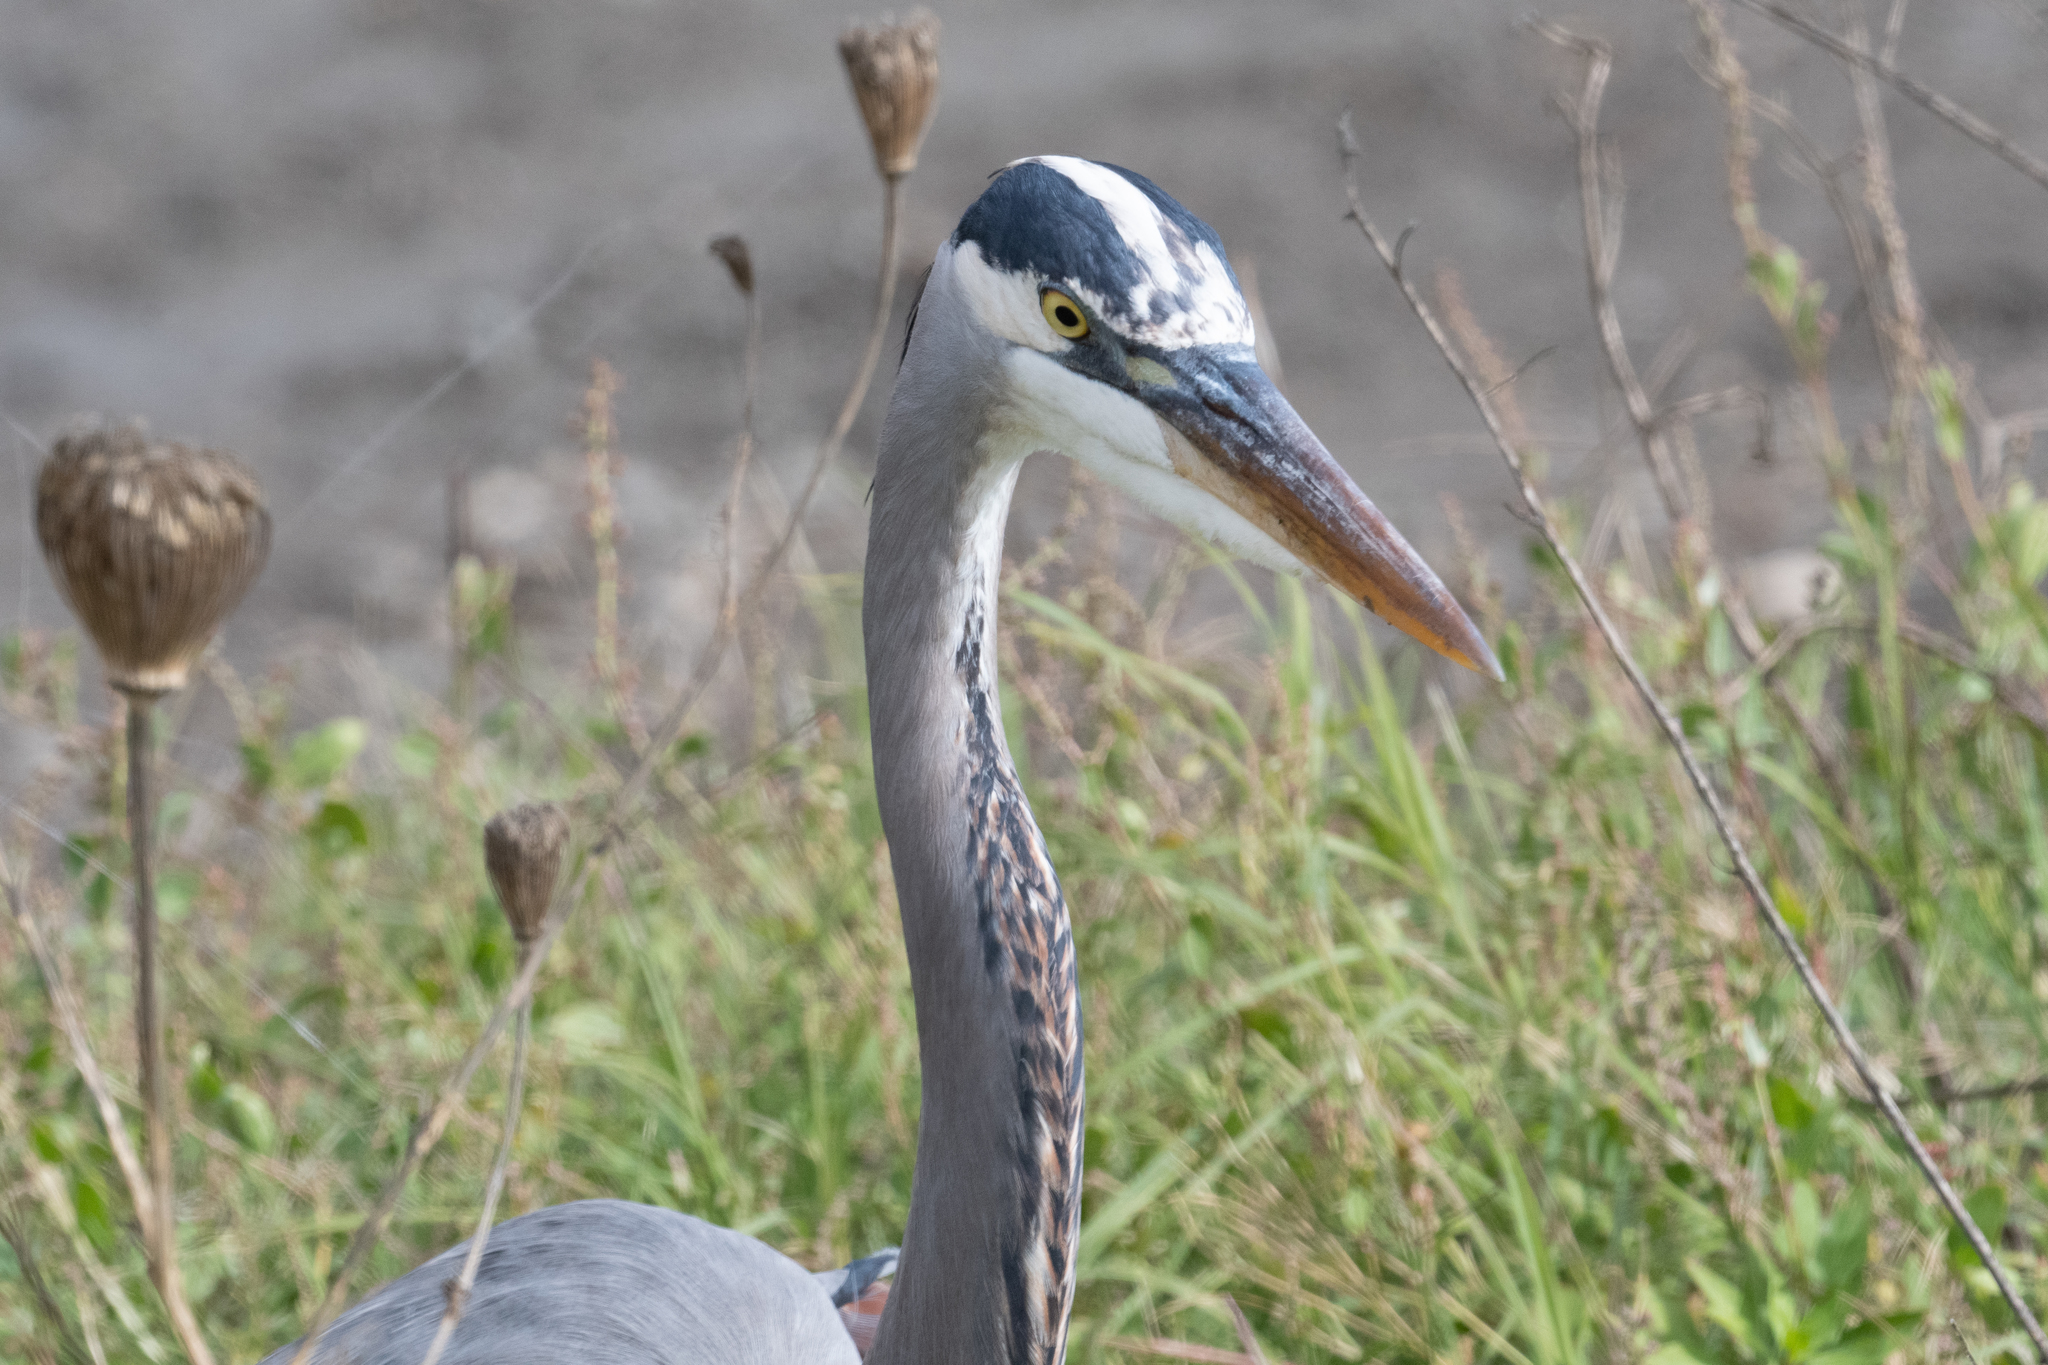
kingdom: Animalia
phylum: Chordata
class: Aves
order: Pelecaniformes
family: Ardeidae
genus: Ardea
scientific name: Ardea herodias
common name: Great blue heron
